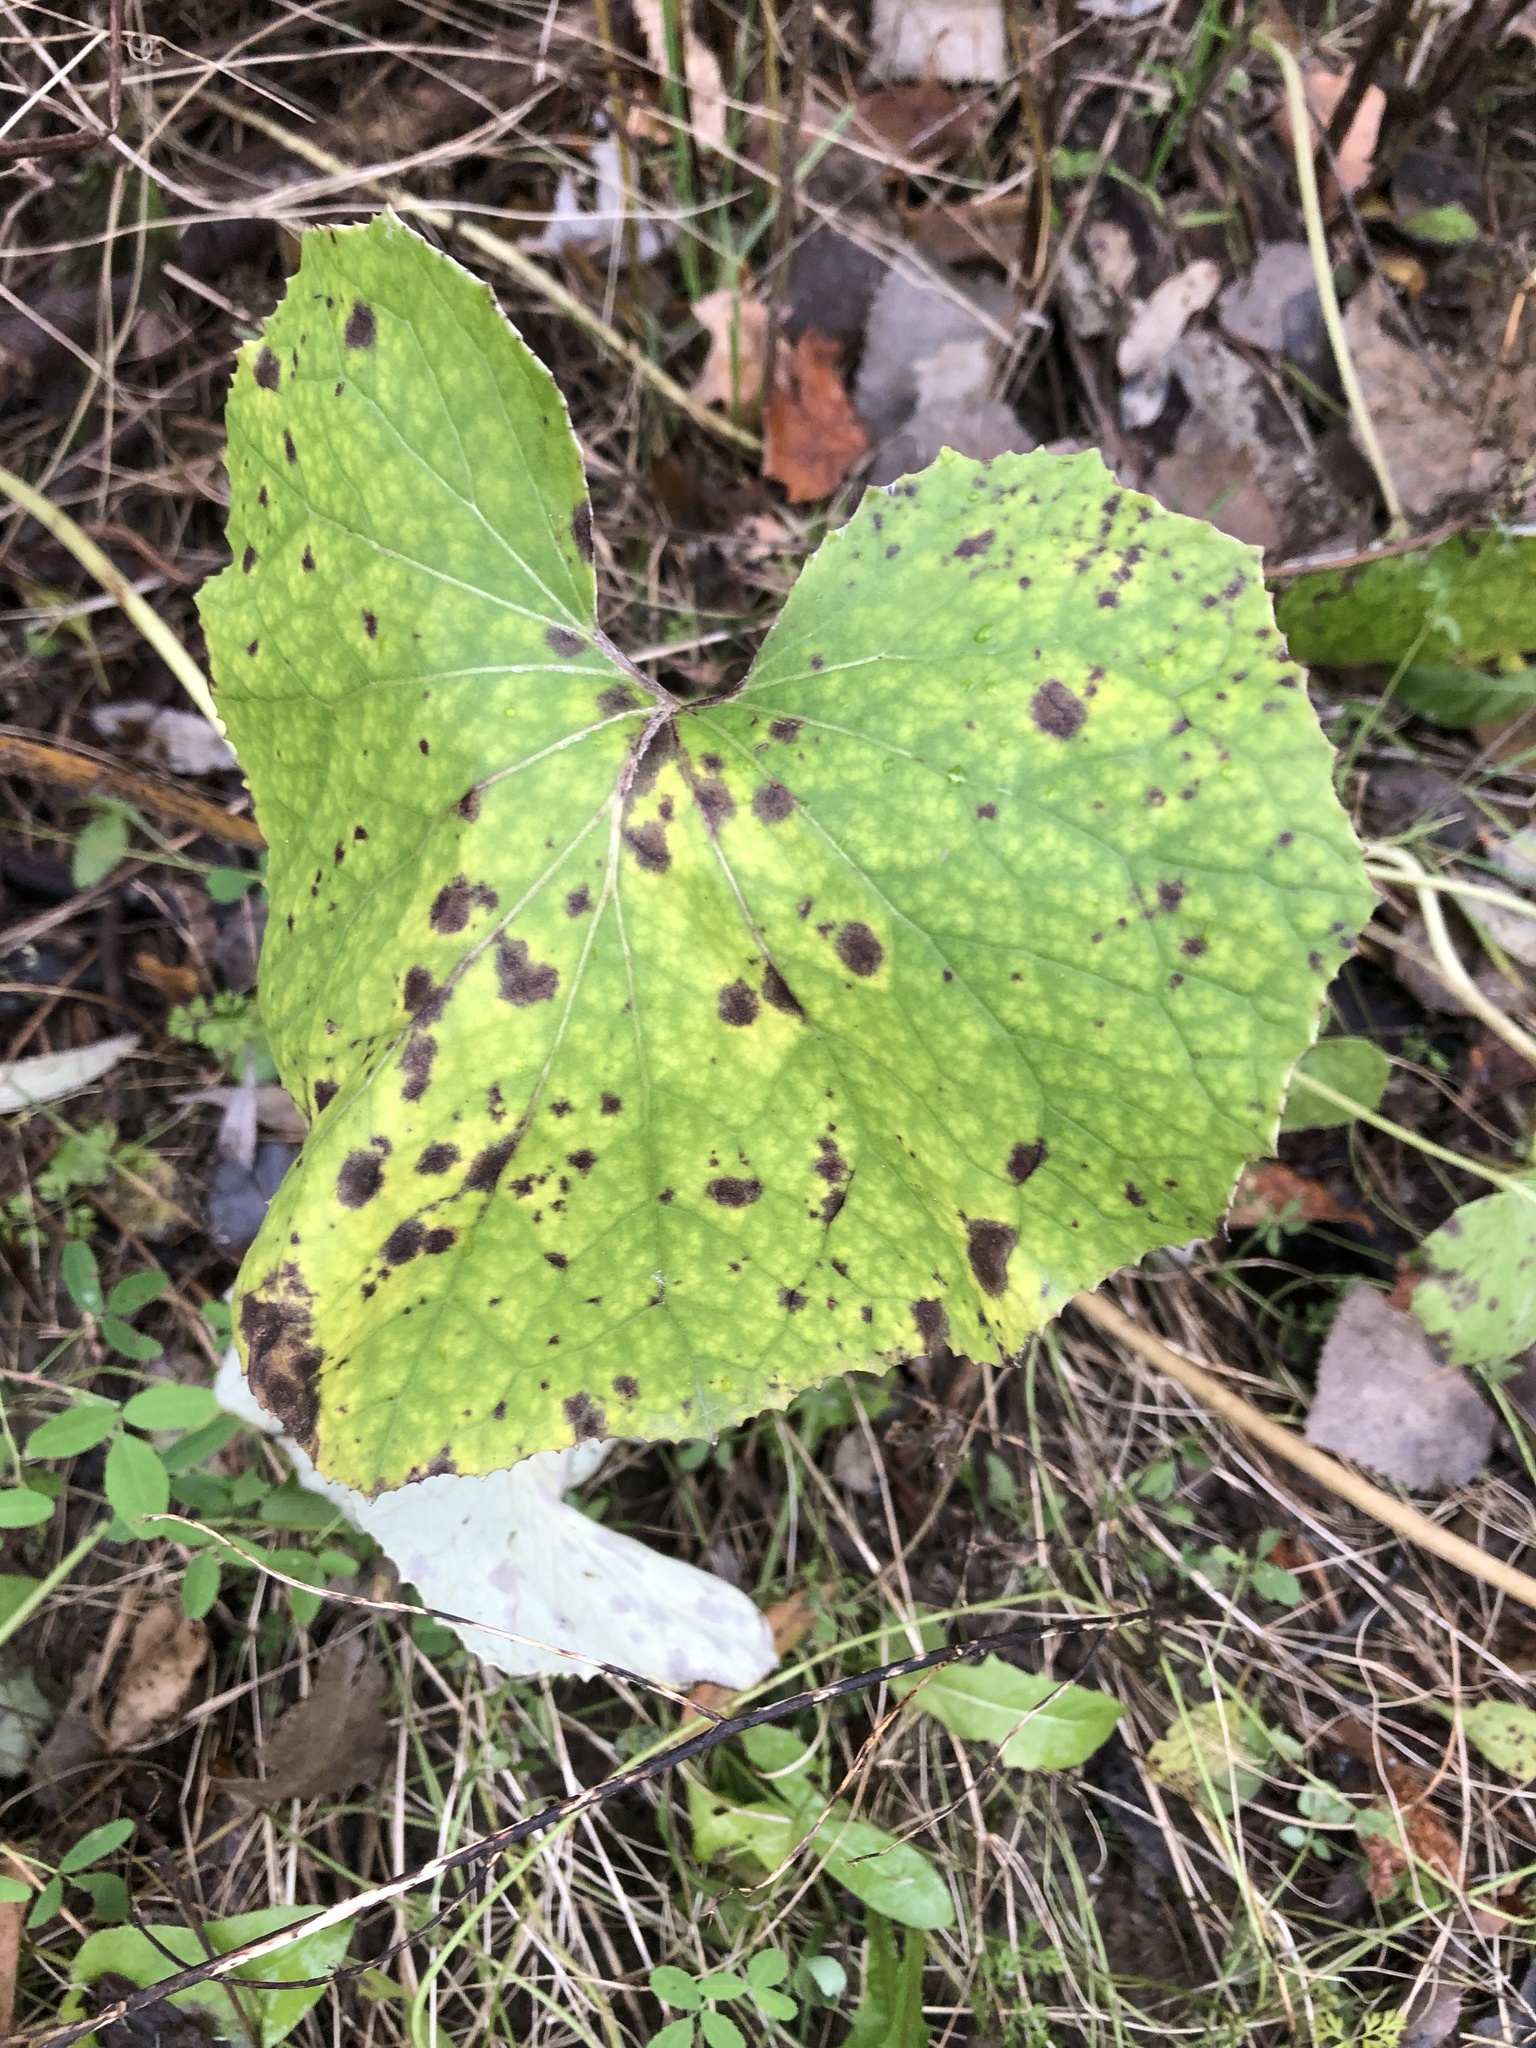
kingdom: Plantae
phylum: Tracheophyta
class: Magnoliopsida
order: Asterales
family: Asteraceae
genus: Tussilago
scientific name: Tussilago farfara
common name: Coltsfoot
